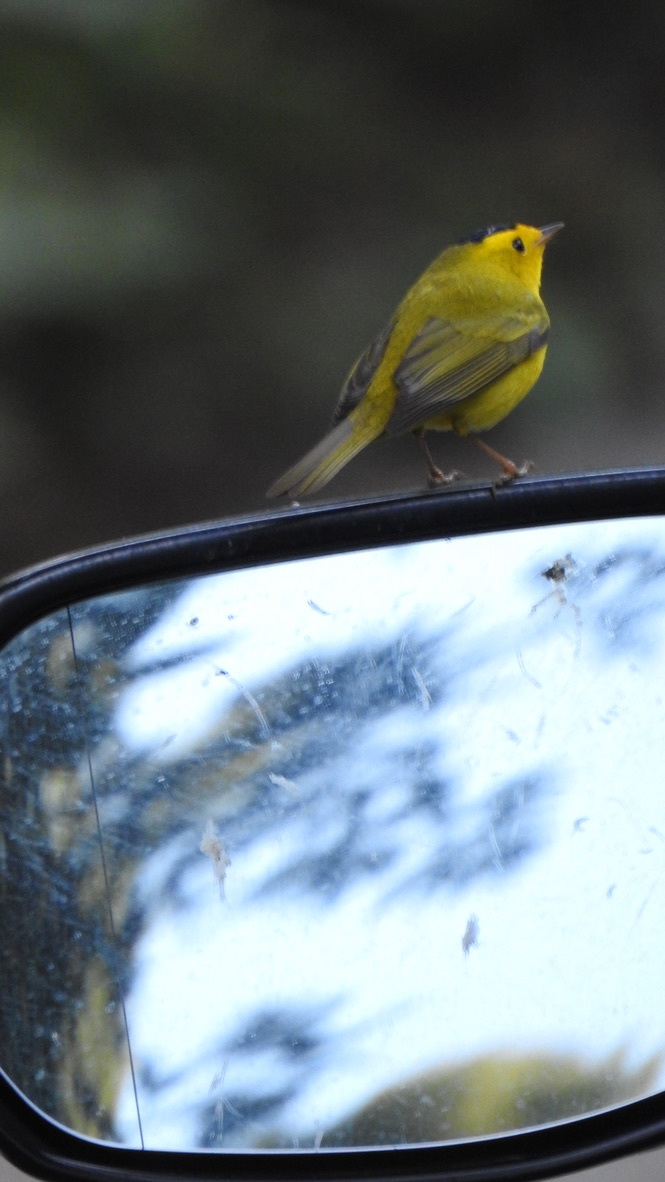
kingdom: Animalia
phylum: Chordata
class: Aves
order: Passeriformes
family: Parulidae
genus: Cardellina
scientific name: Cardellina pusilla
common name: Wilson's warbler
